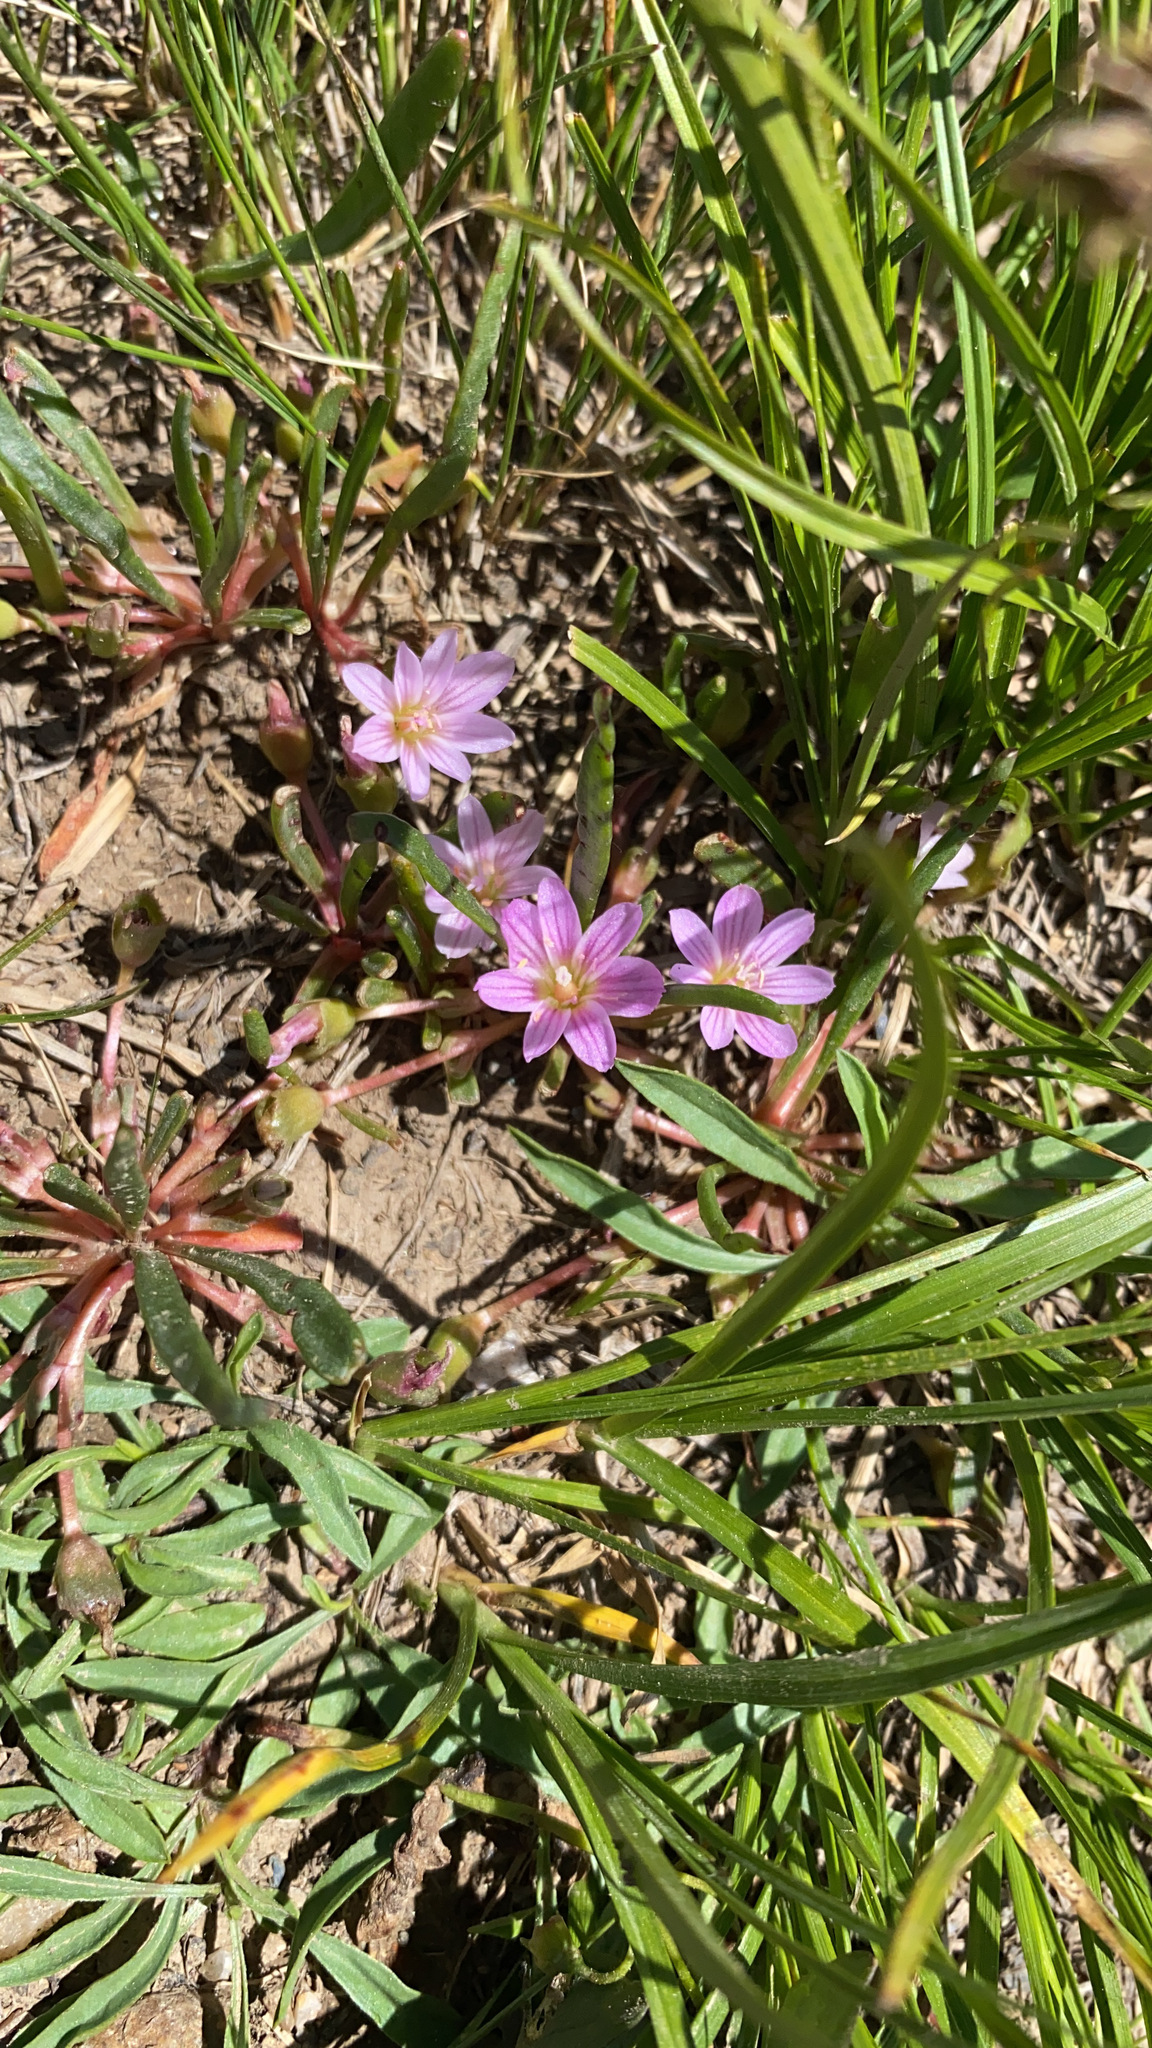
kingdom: Plantae
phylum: Tracheophyta
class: Magnoliopsida
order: Caryophyllales
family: Montiaceae
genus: Lewisia
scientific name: Lewisia pygmaea
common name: Alpine bitterroot
